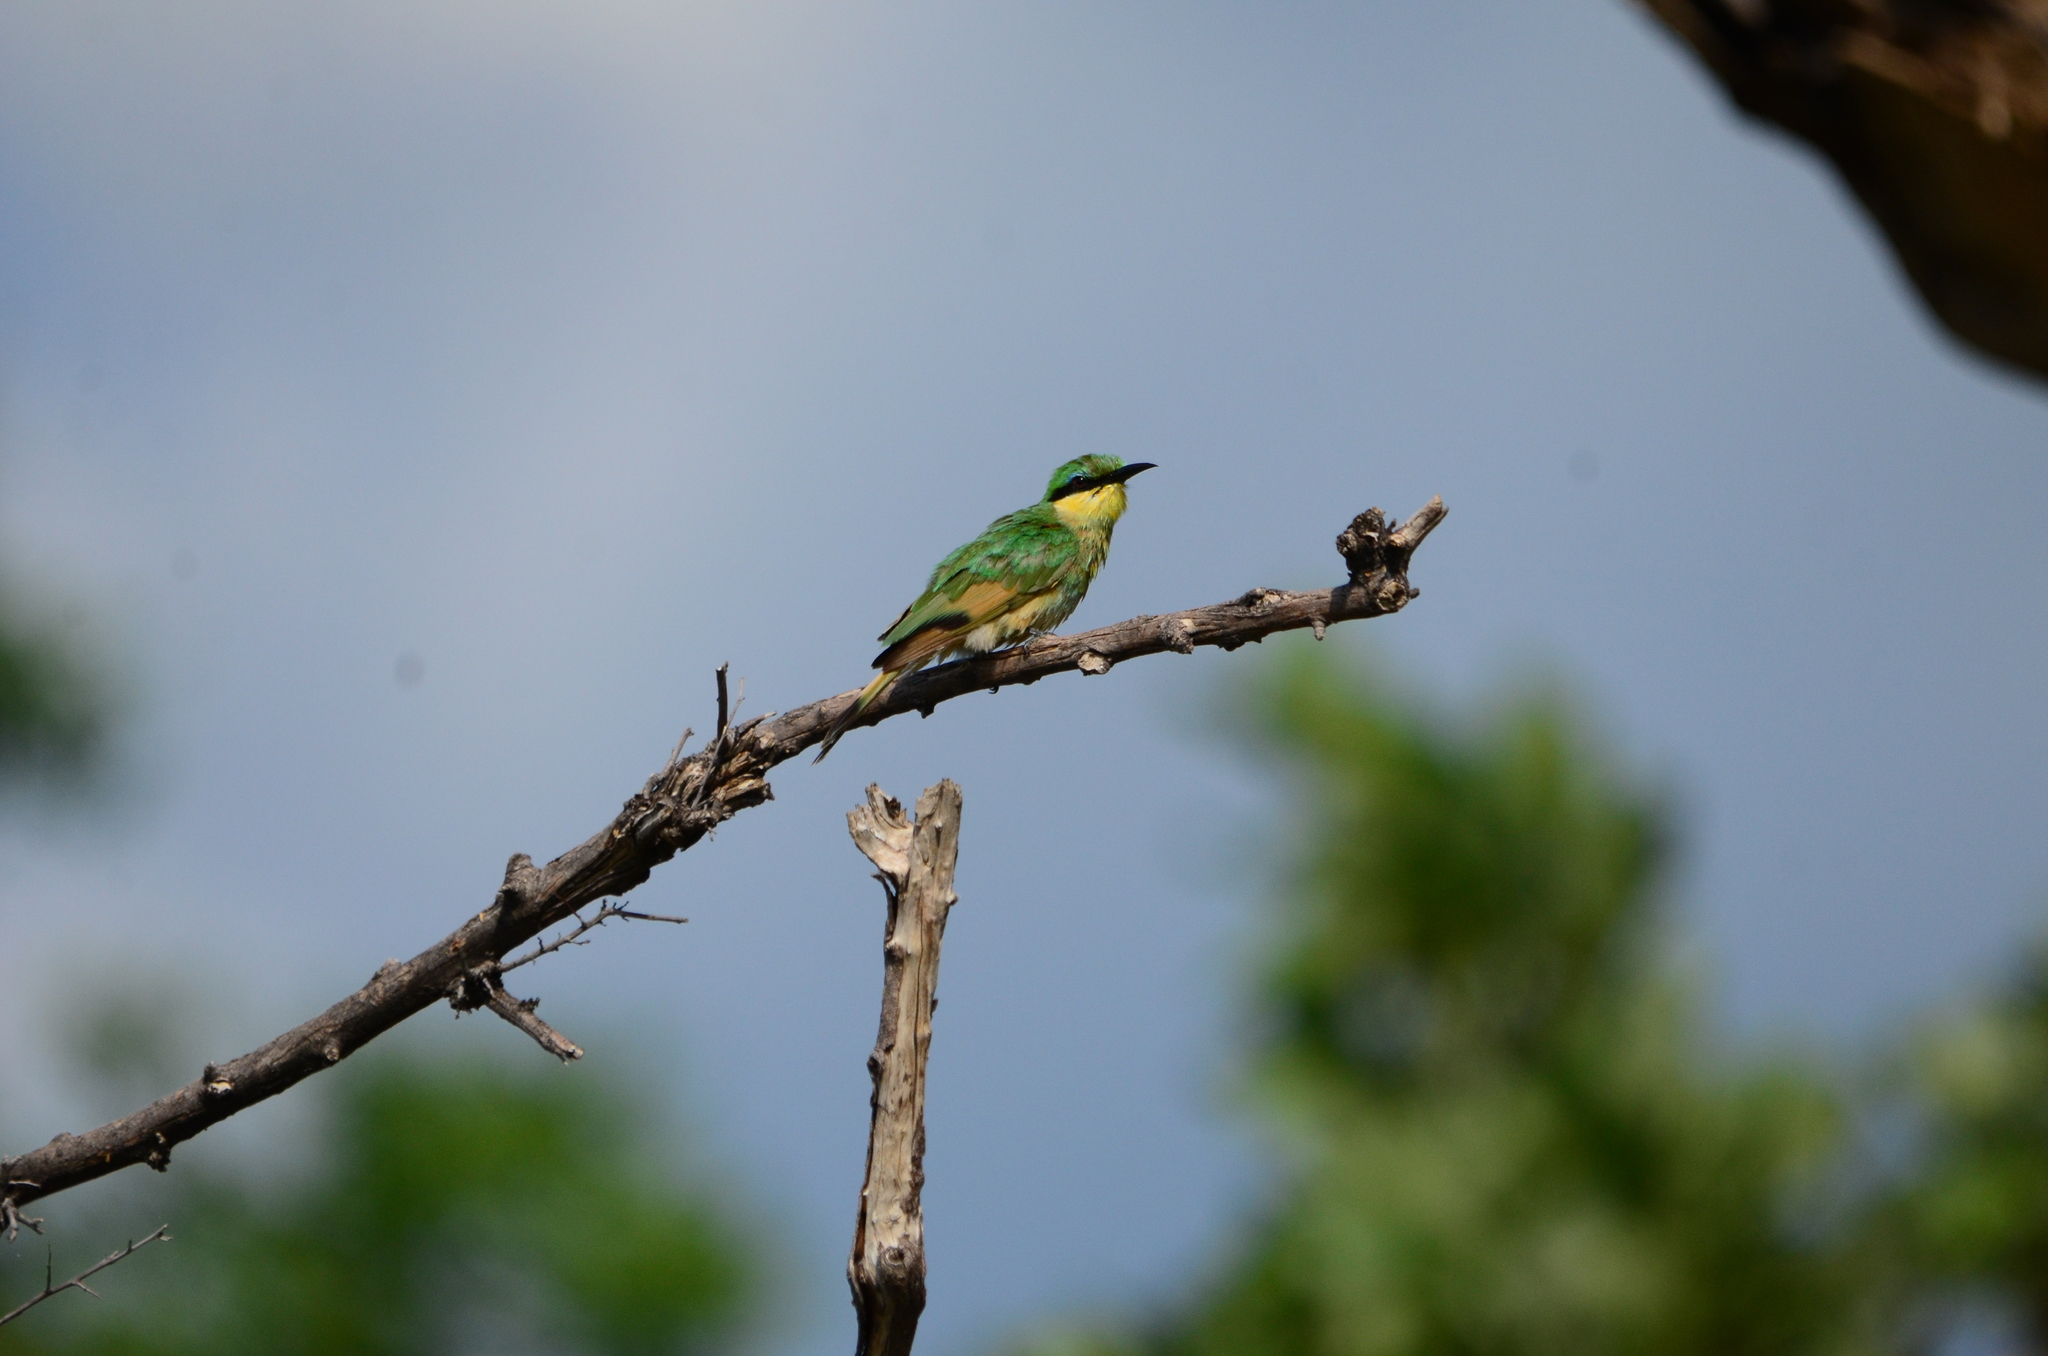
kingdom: Animalia
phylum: Chordata
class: Aves
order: Coraciiformes
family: Meropidae
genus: Merops
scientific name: Merops pusillus
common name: Little bee-eater
